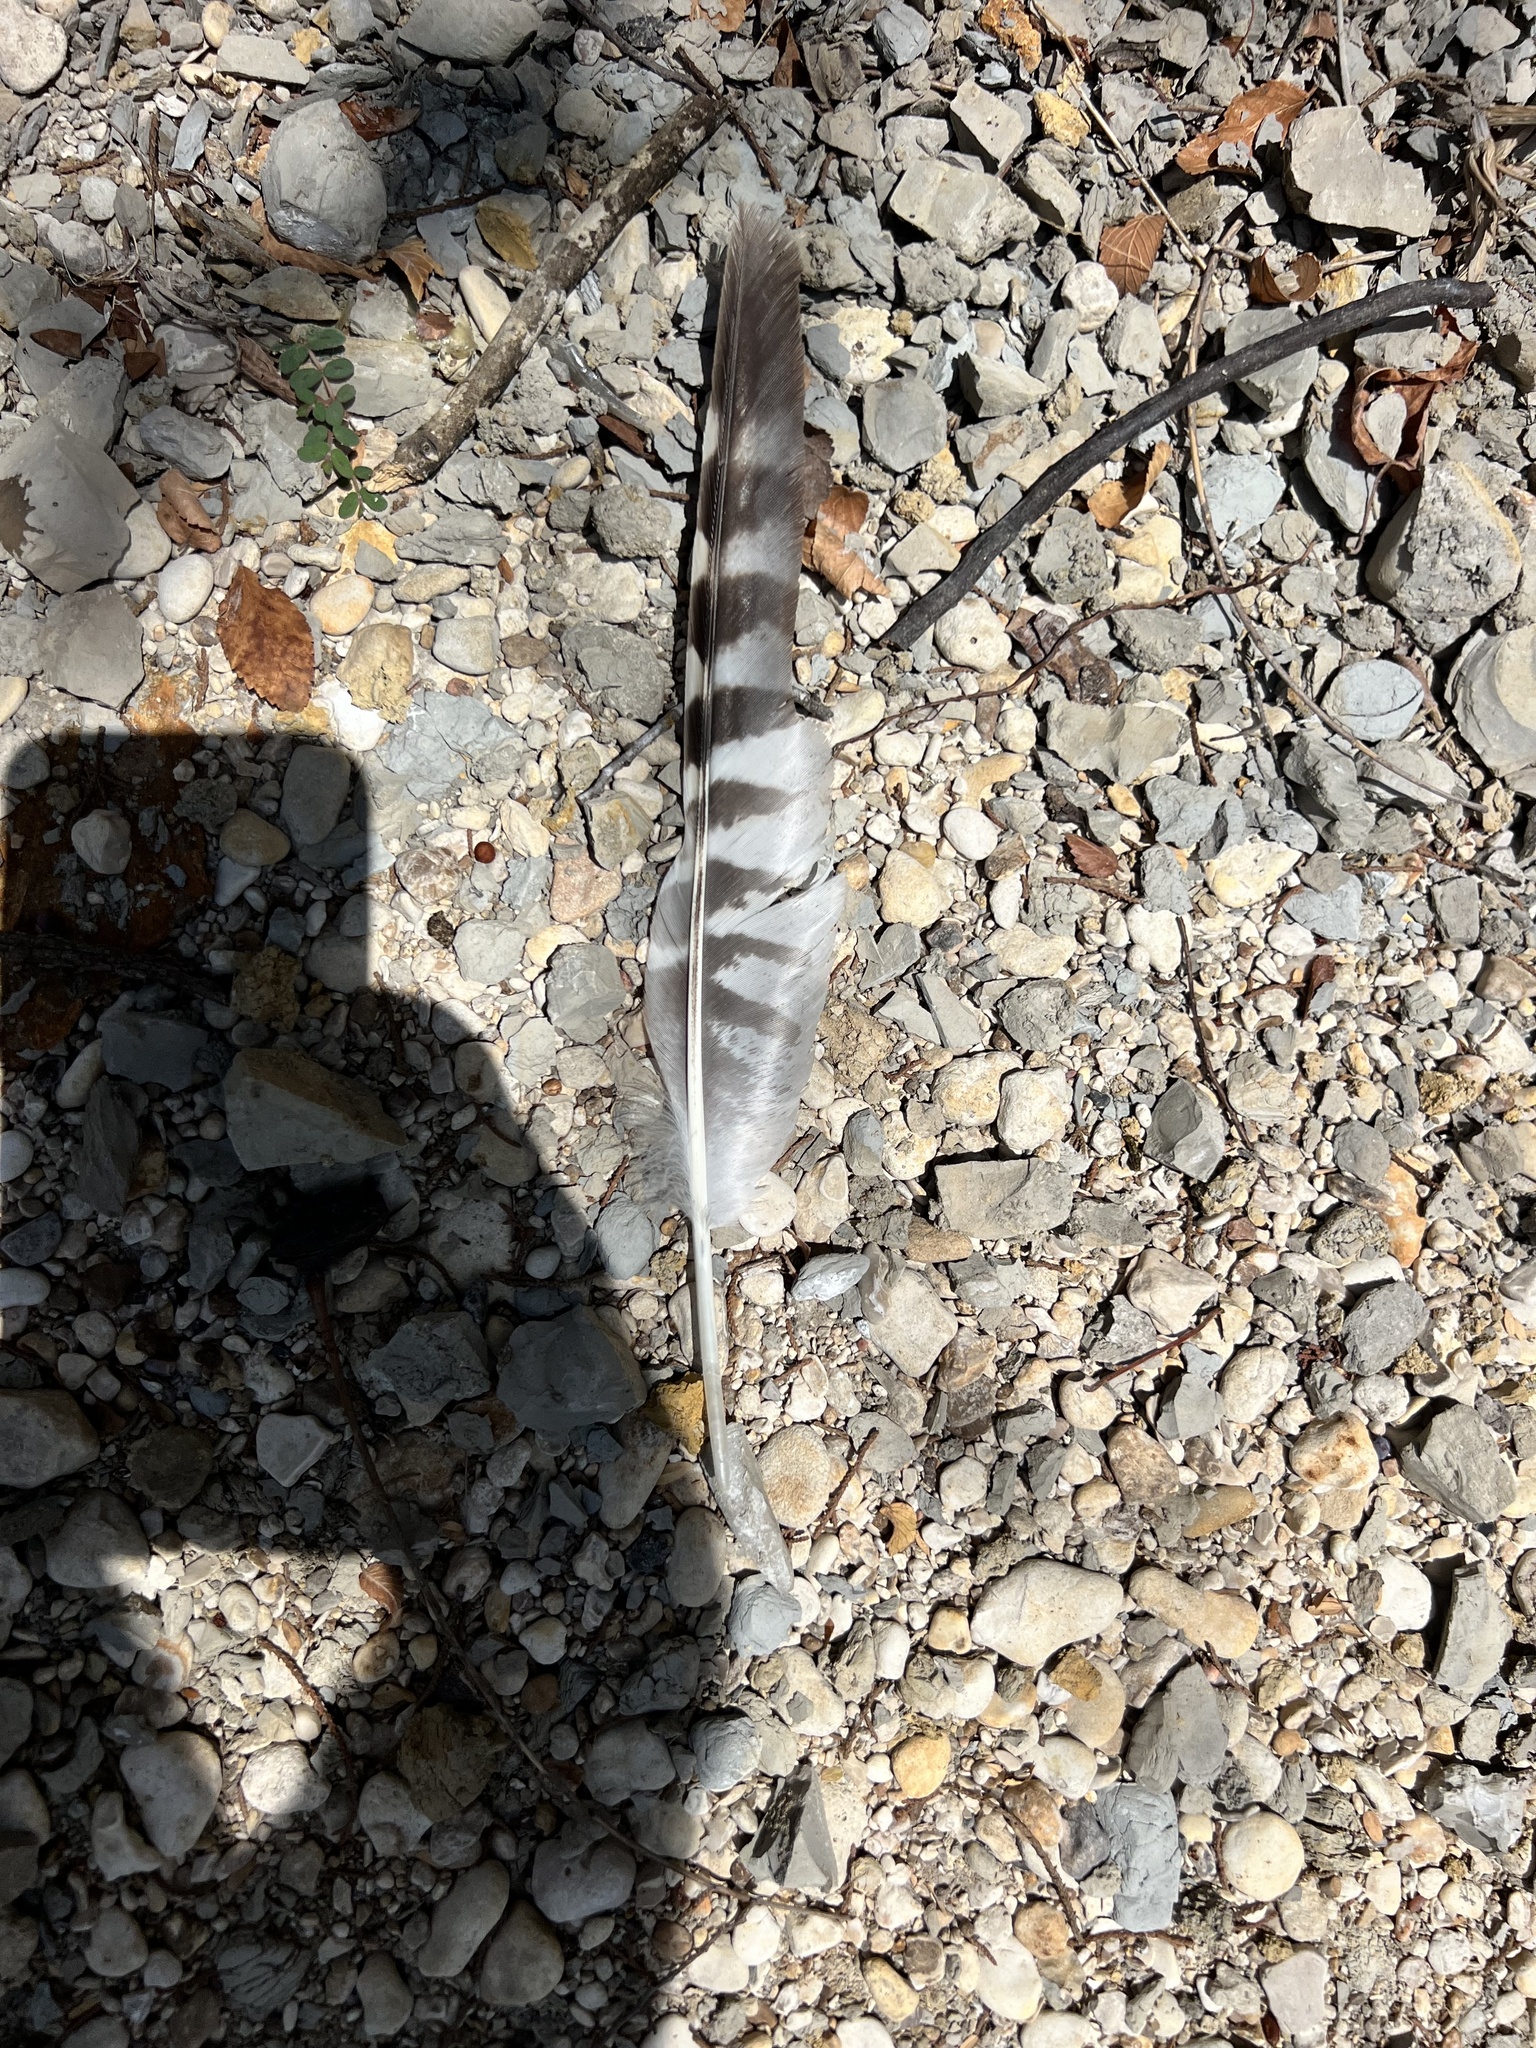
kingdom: Animalia
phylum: Chordata
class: Aves
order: Accipitriformes
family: Accipitridae
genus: Buteo
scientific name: Buteo lineatus
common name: Red-shouldered hawk
